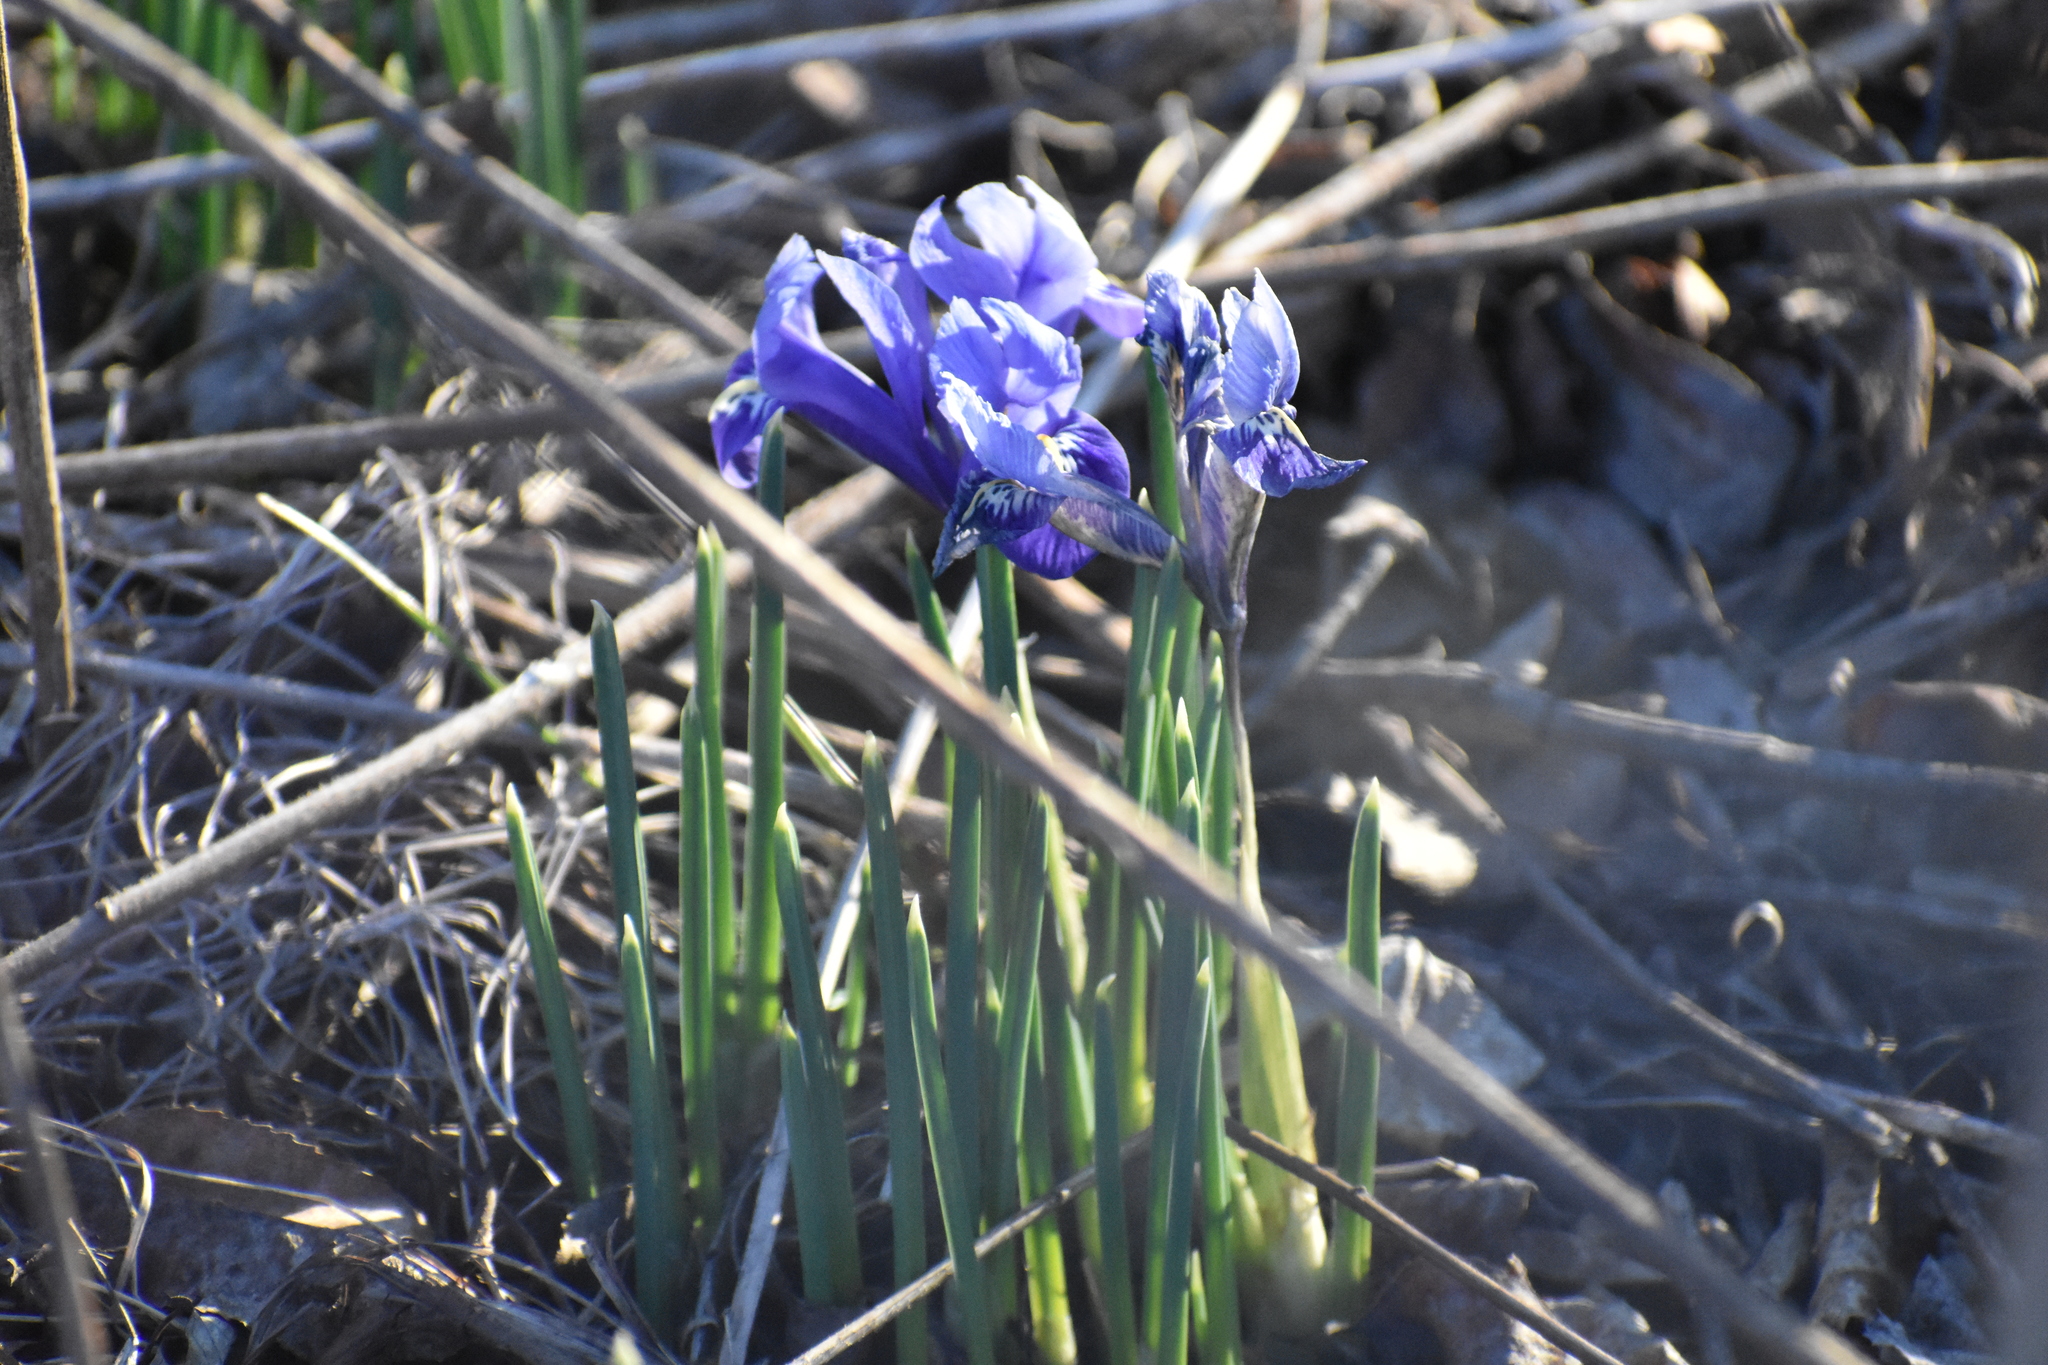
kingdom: Plantae
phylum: Tracheophyta
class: Liliopsida
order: Asparagales
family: Iridaceae
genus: Iris
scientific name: Iris reticulata
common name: Netted iris
